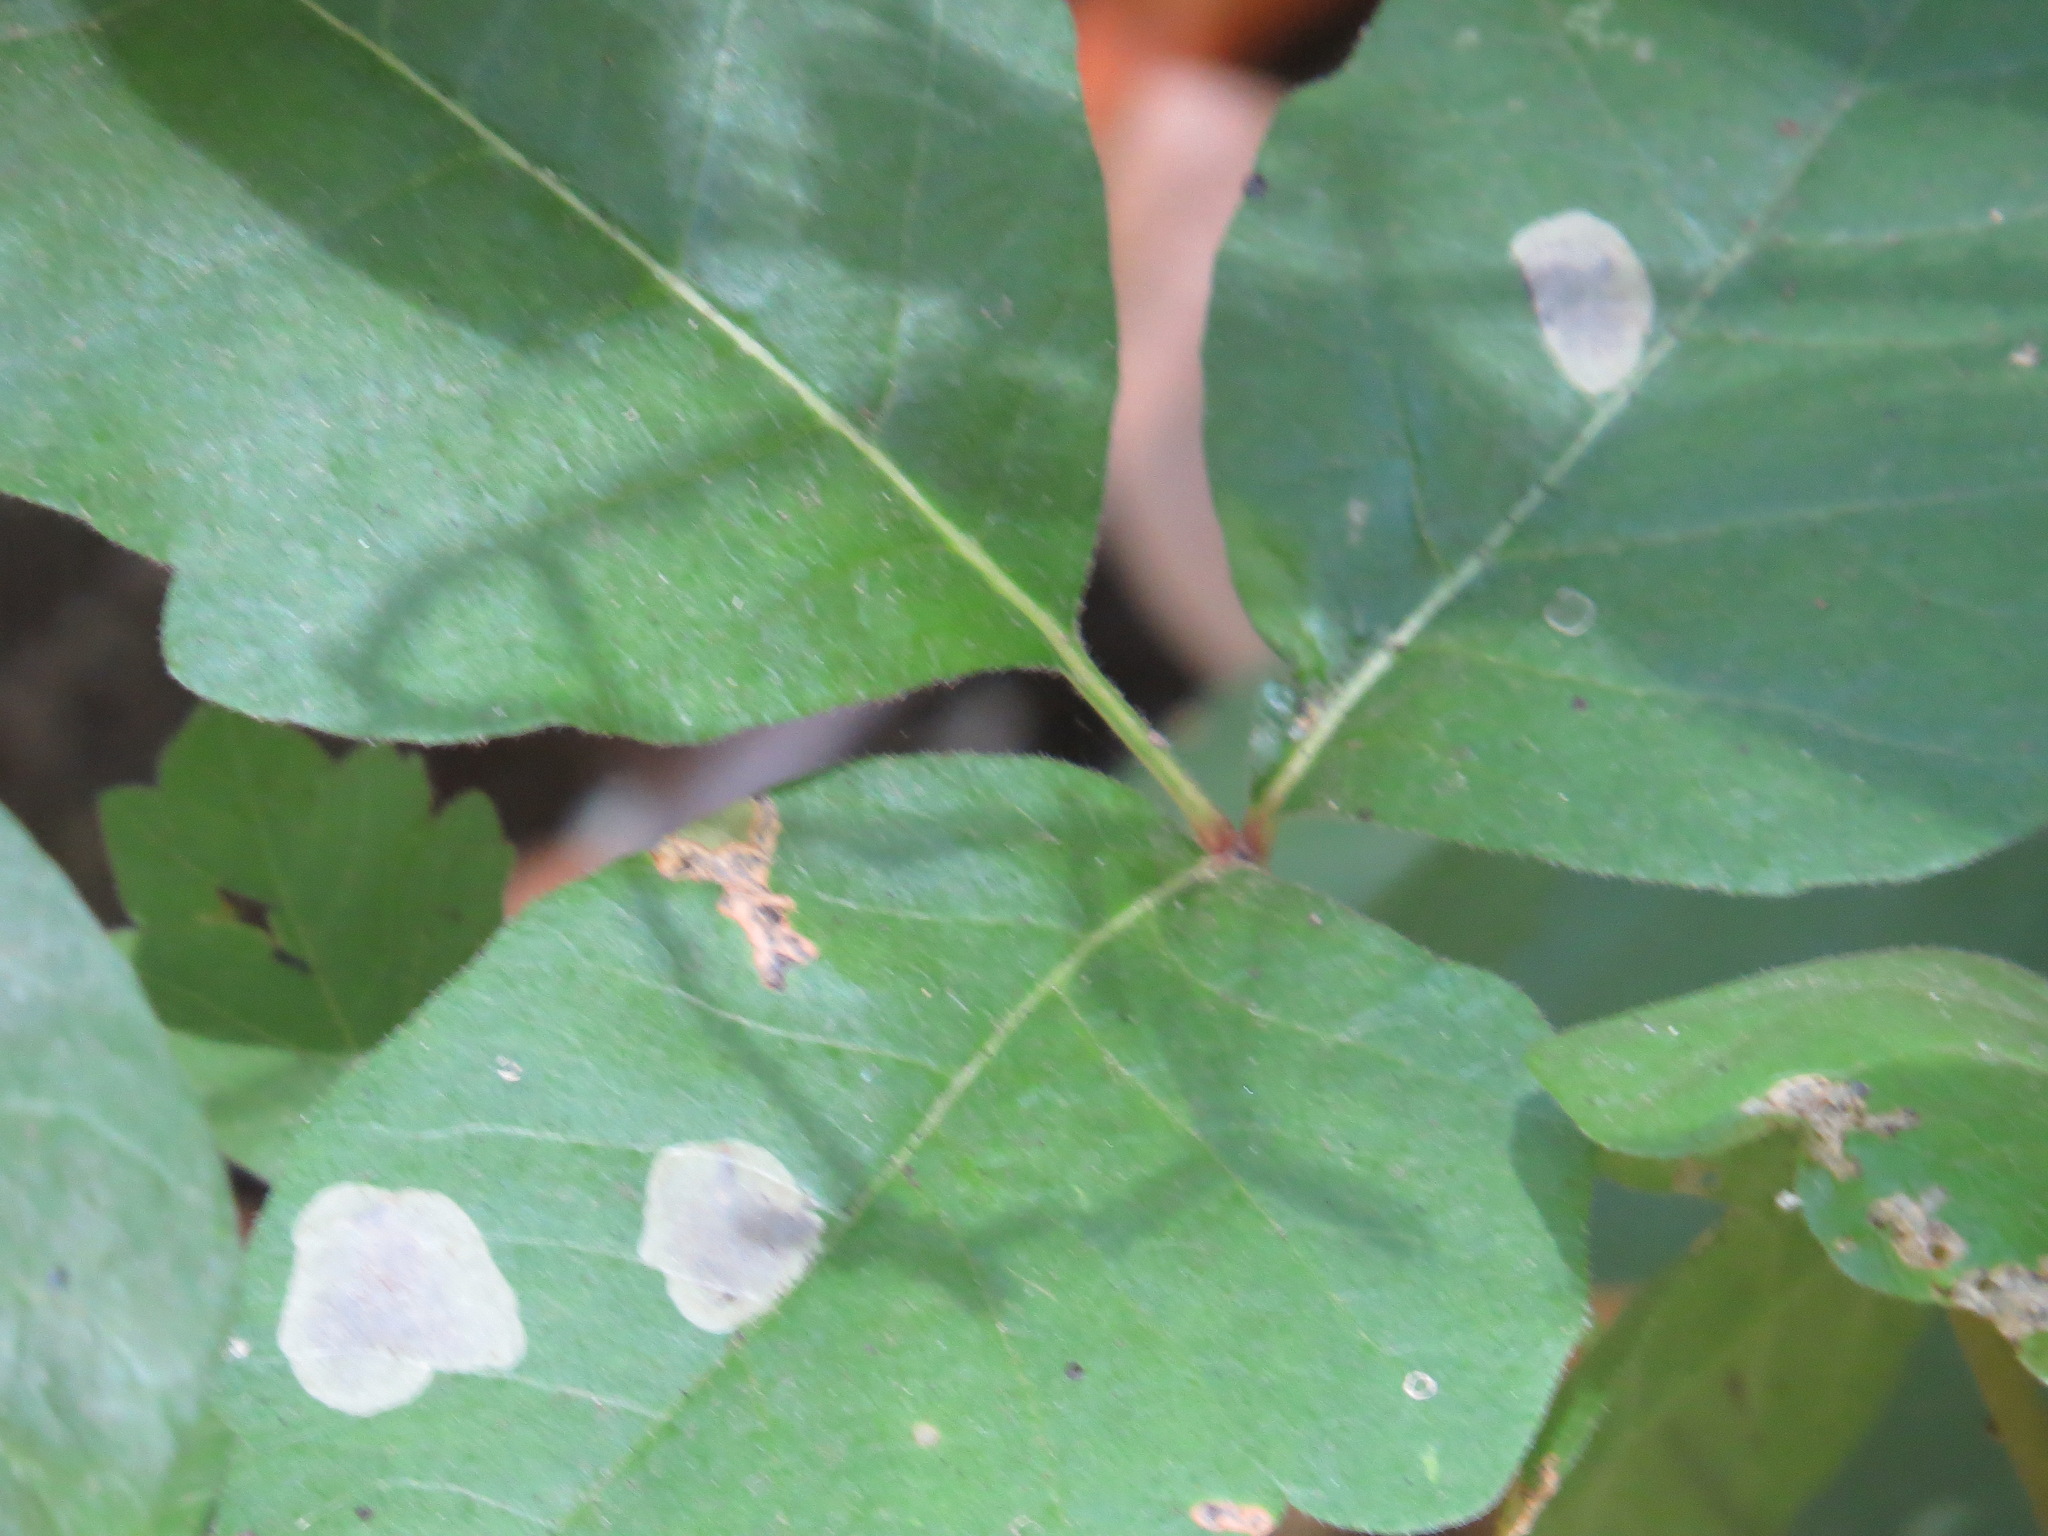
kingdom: Animalia
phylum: Arthropoda
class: Insecta
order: Lepidoptera
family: Gracillariidae
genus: Cameraria
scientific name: Cameraria guttifinitella
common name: Poison ivy leaf-miner moth
